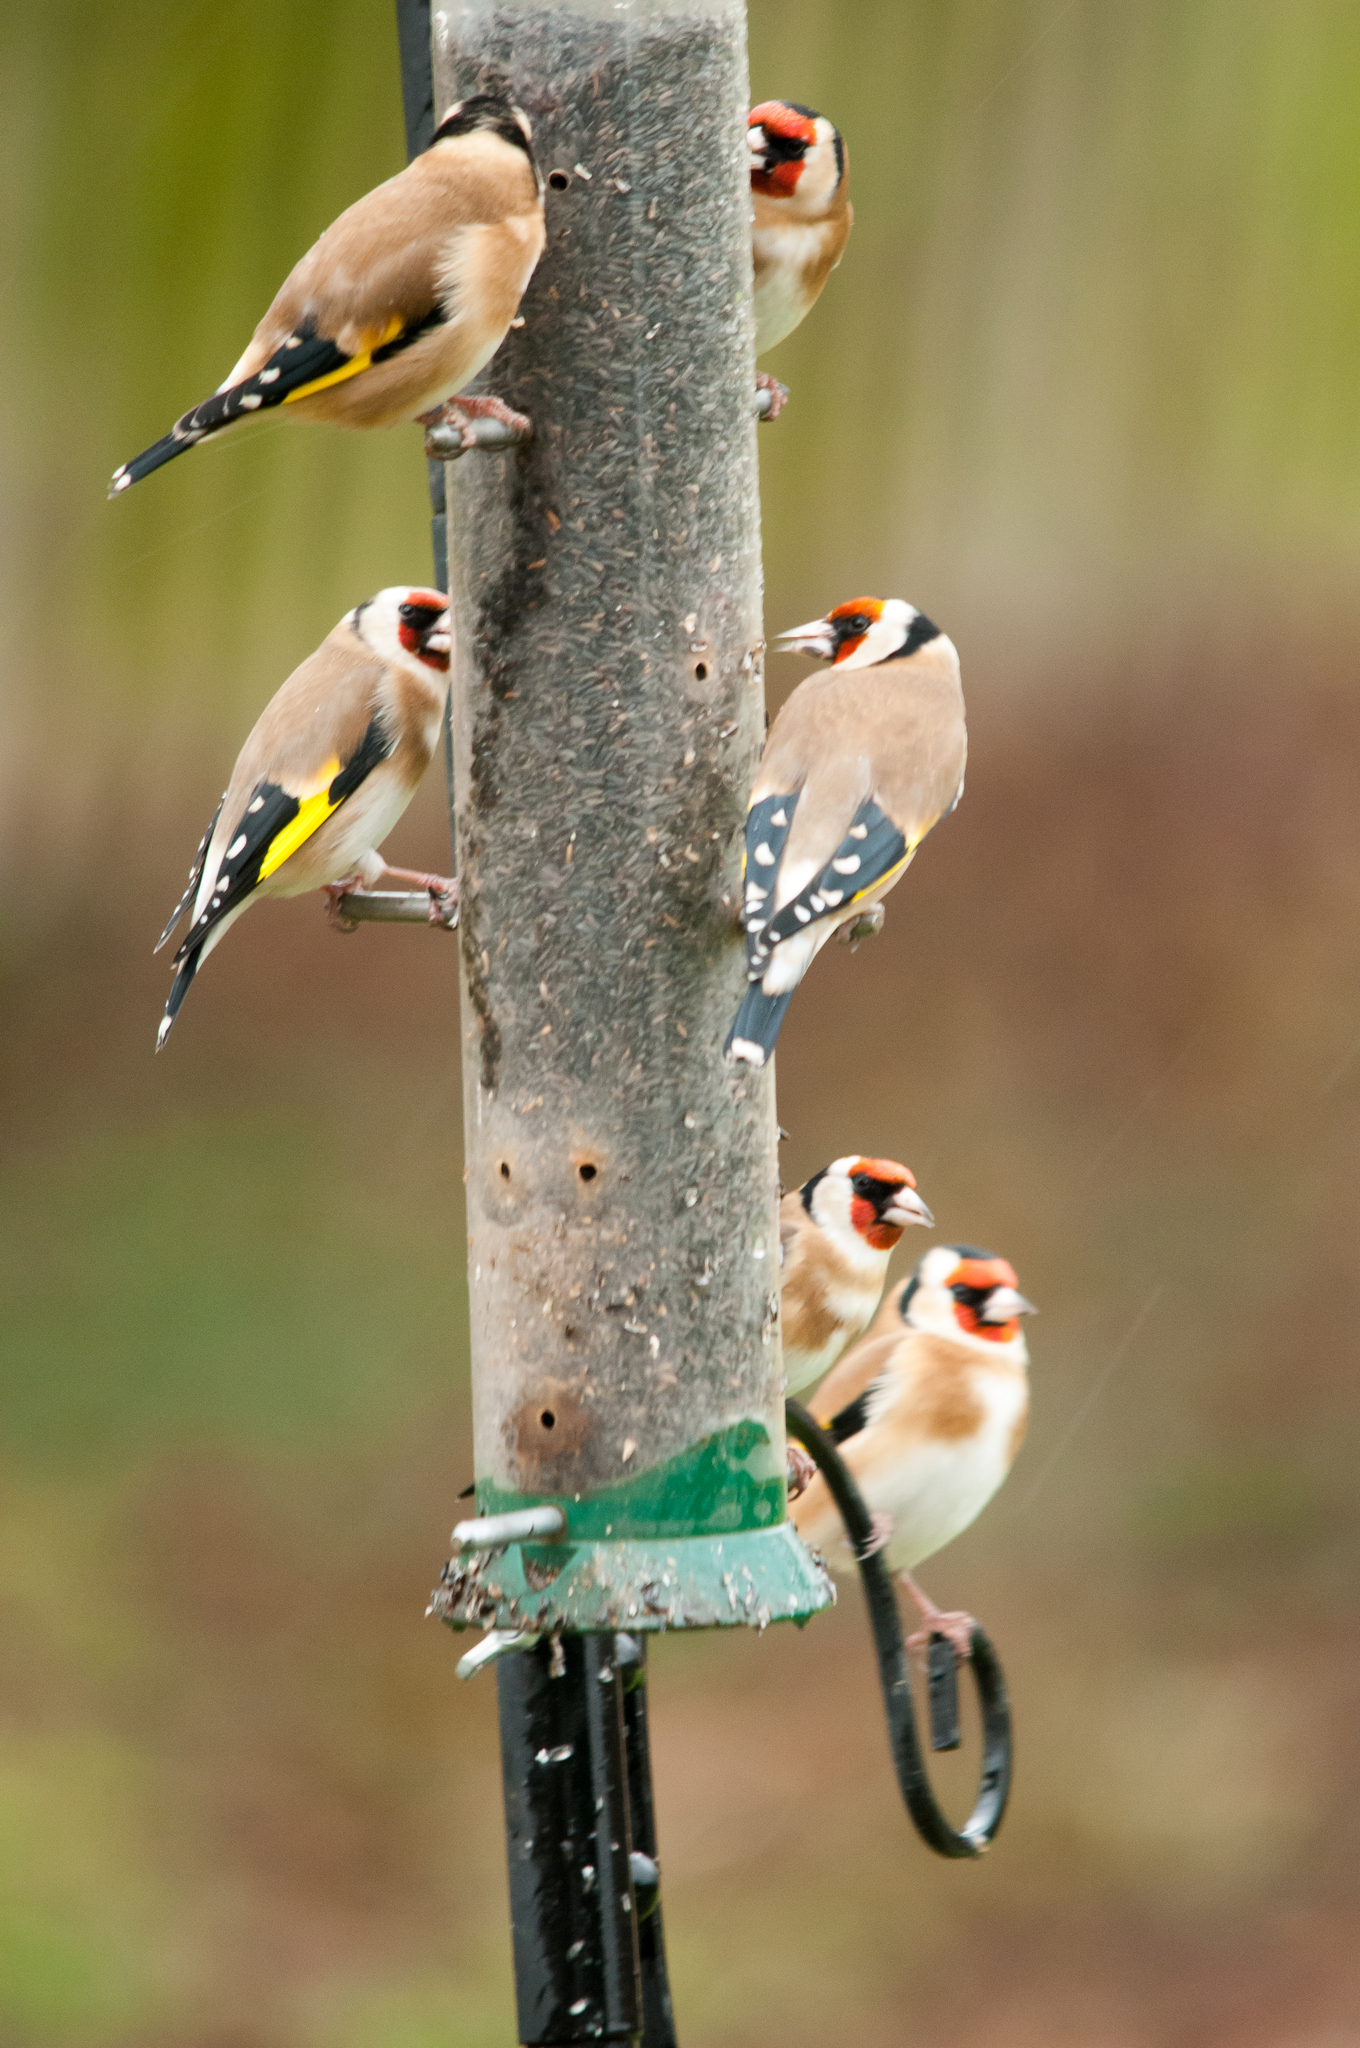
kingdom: Animalia
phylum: Chordata
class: Aves
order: Passeriformes
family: Fringillidae
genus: Carduelis
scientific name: Carduelis carduelis
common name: European goldfinch
